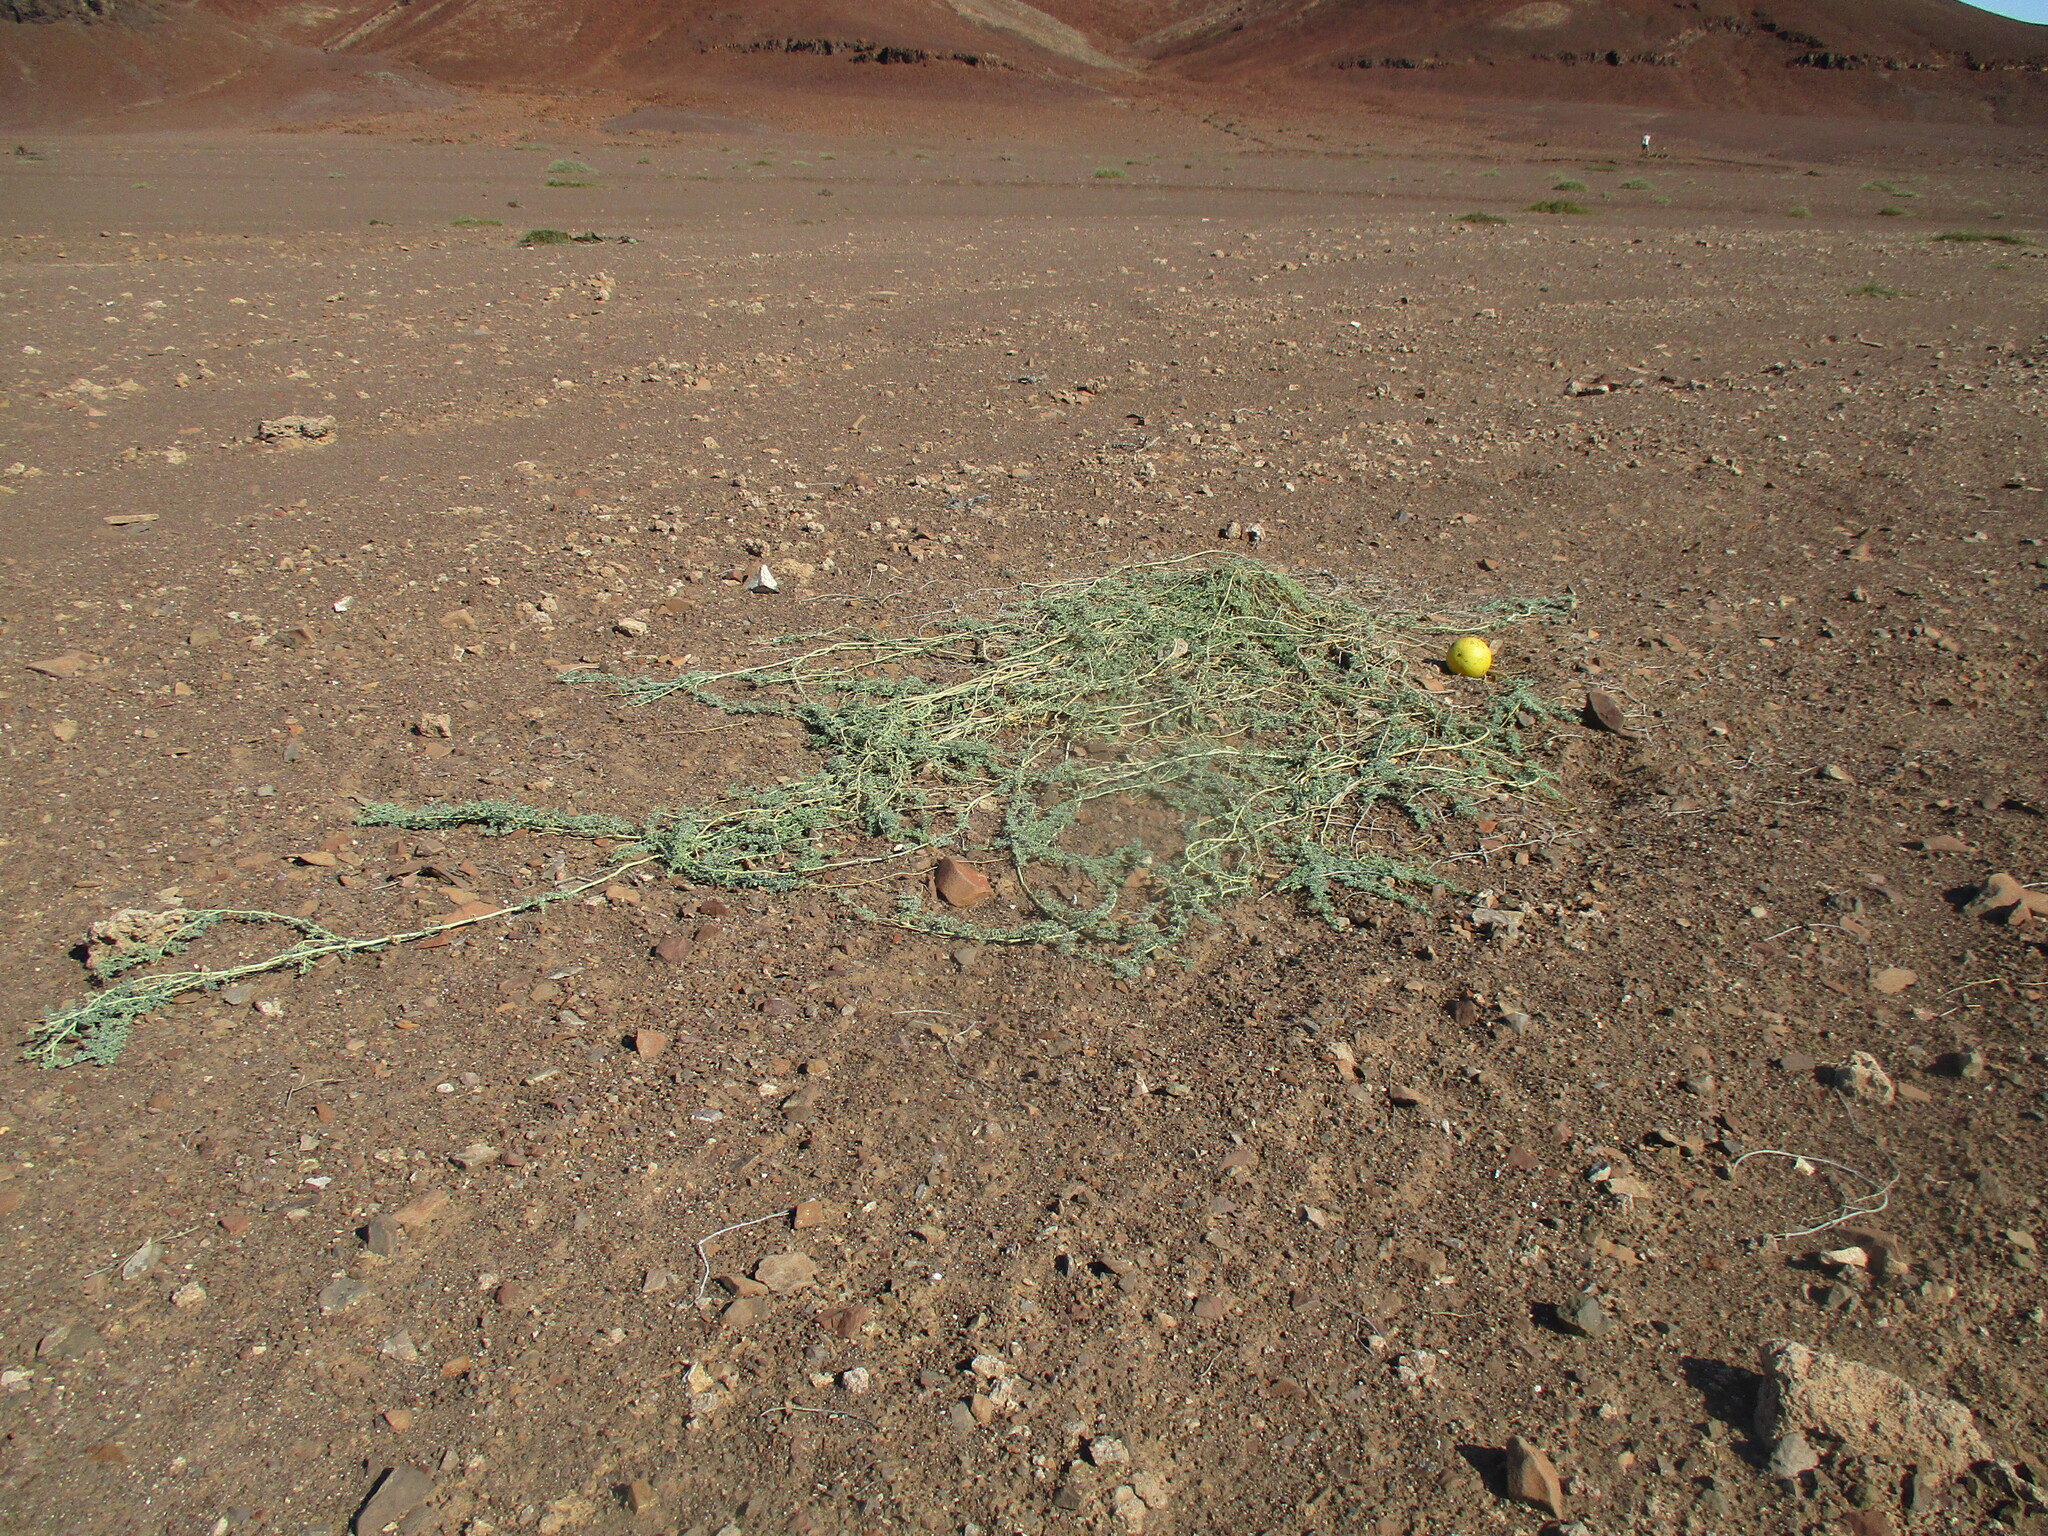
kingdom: Plantae
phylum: Tracheophyta
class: Magnoliopsida
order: Cucurbitales
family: Cucurbitaceae
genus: Citrullus
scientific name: Citrullus ecirrhosus
